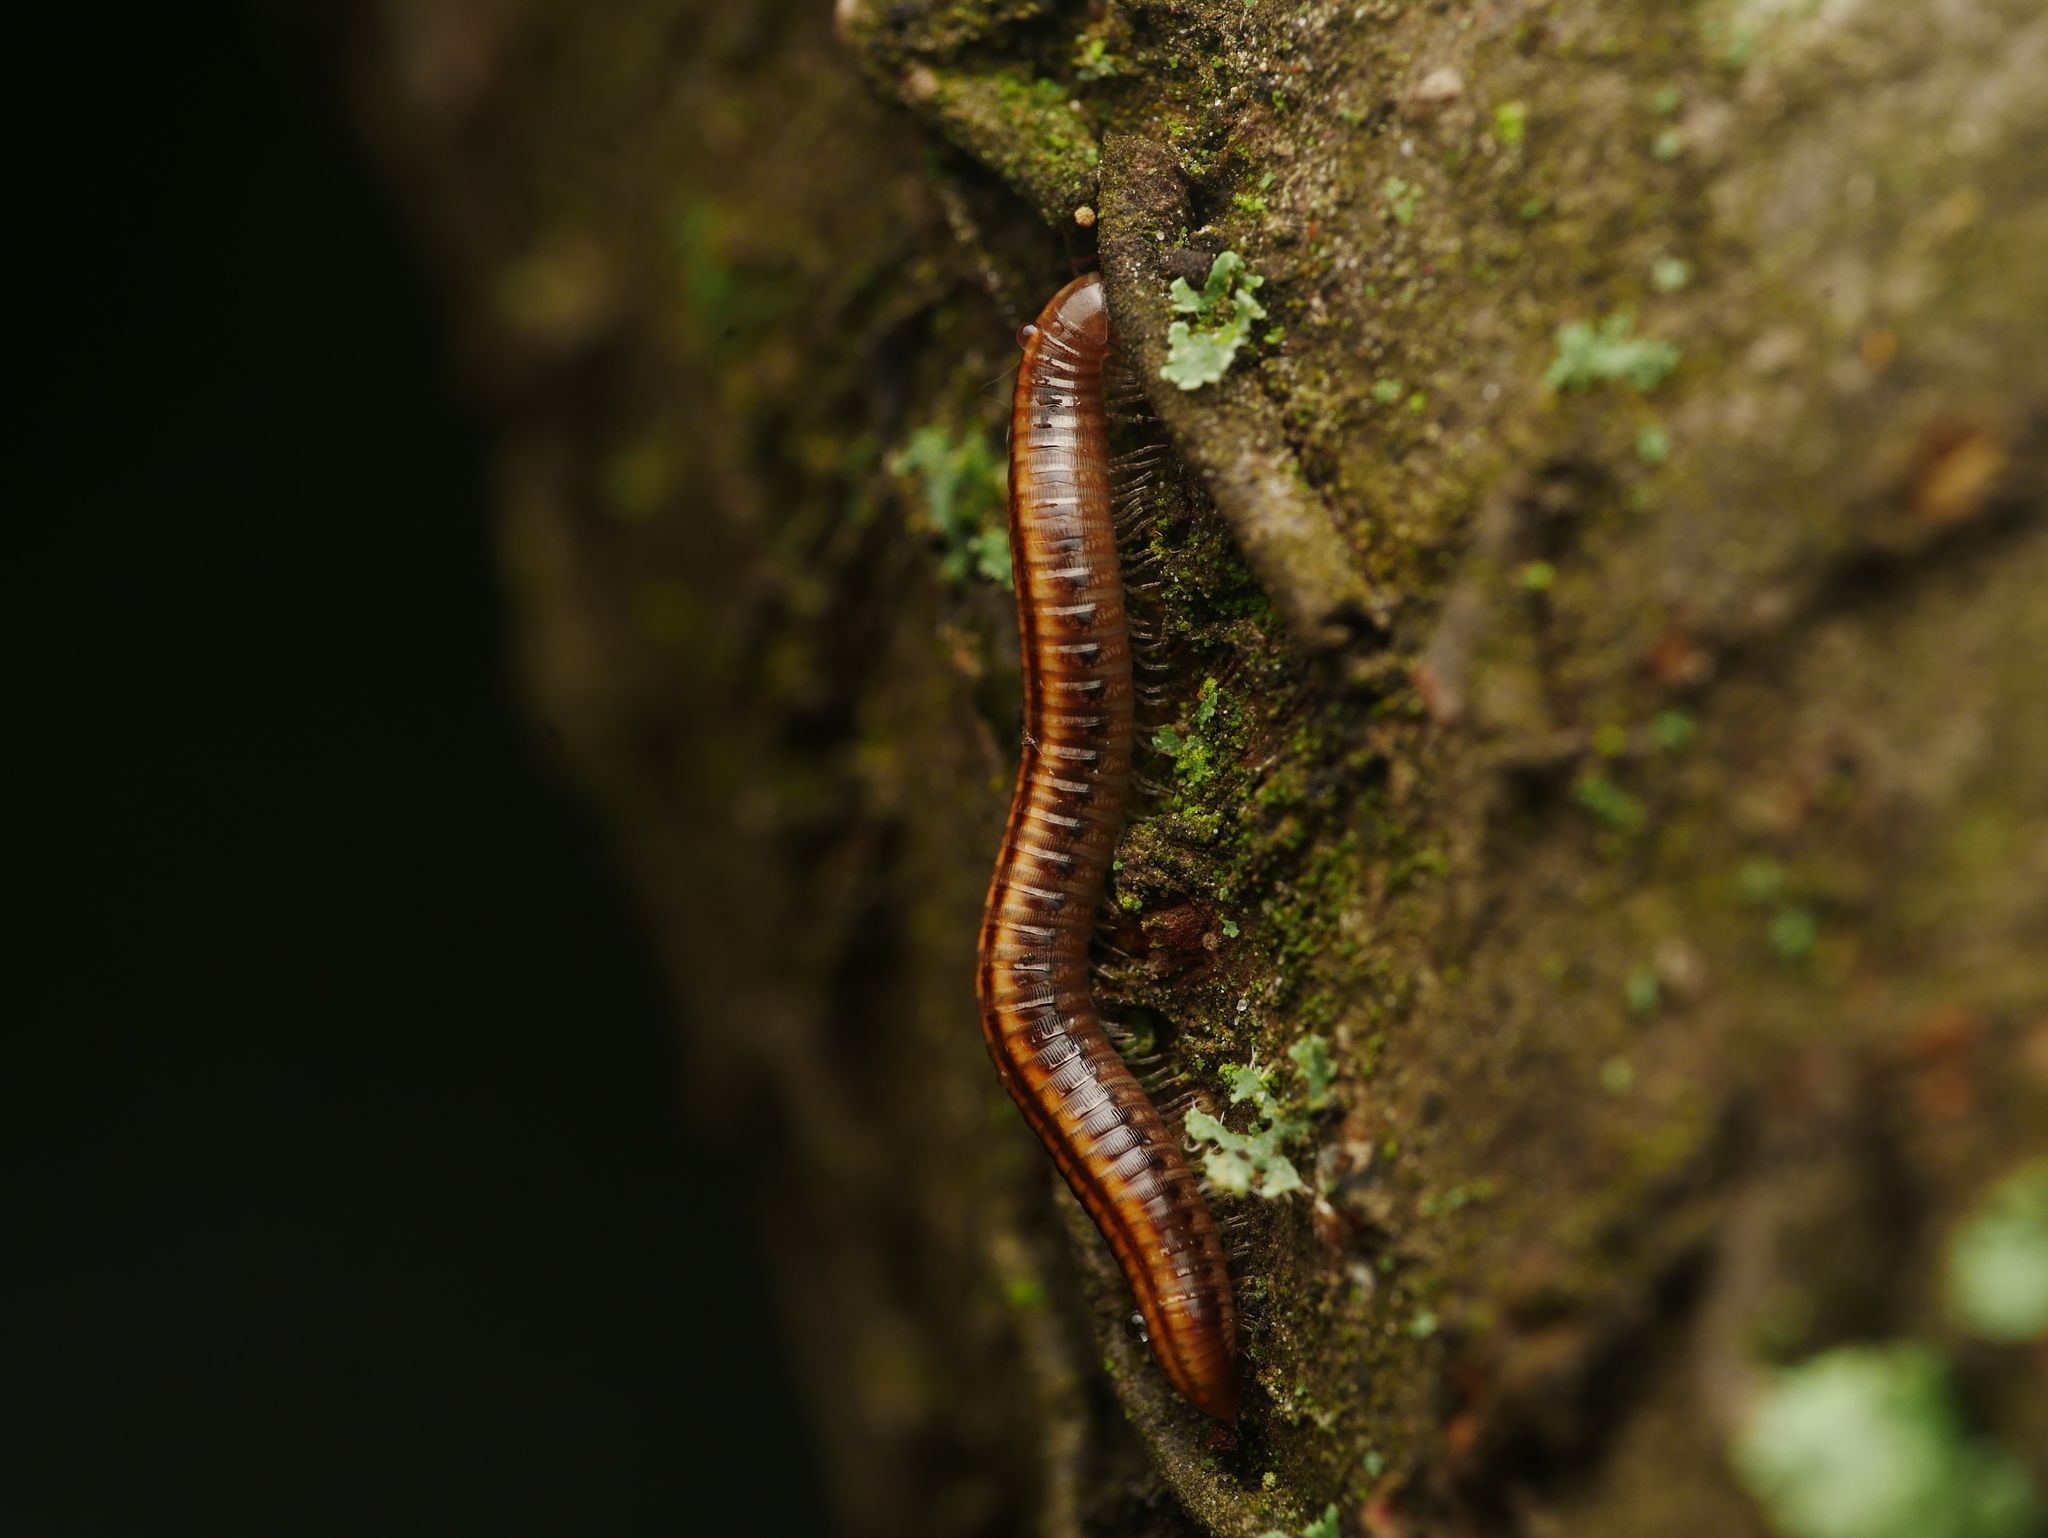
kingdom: Animalia
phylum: Arthropoda
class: Diplopoda
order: Julida
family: Julidae
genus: Ommatoiulus
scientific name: Ommatoiulus sabulosus
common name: Striped millipede
